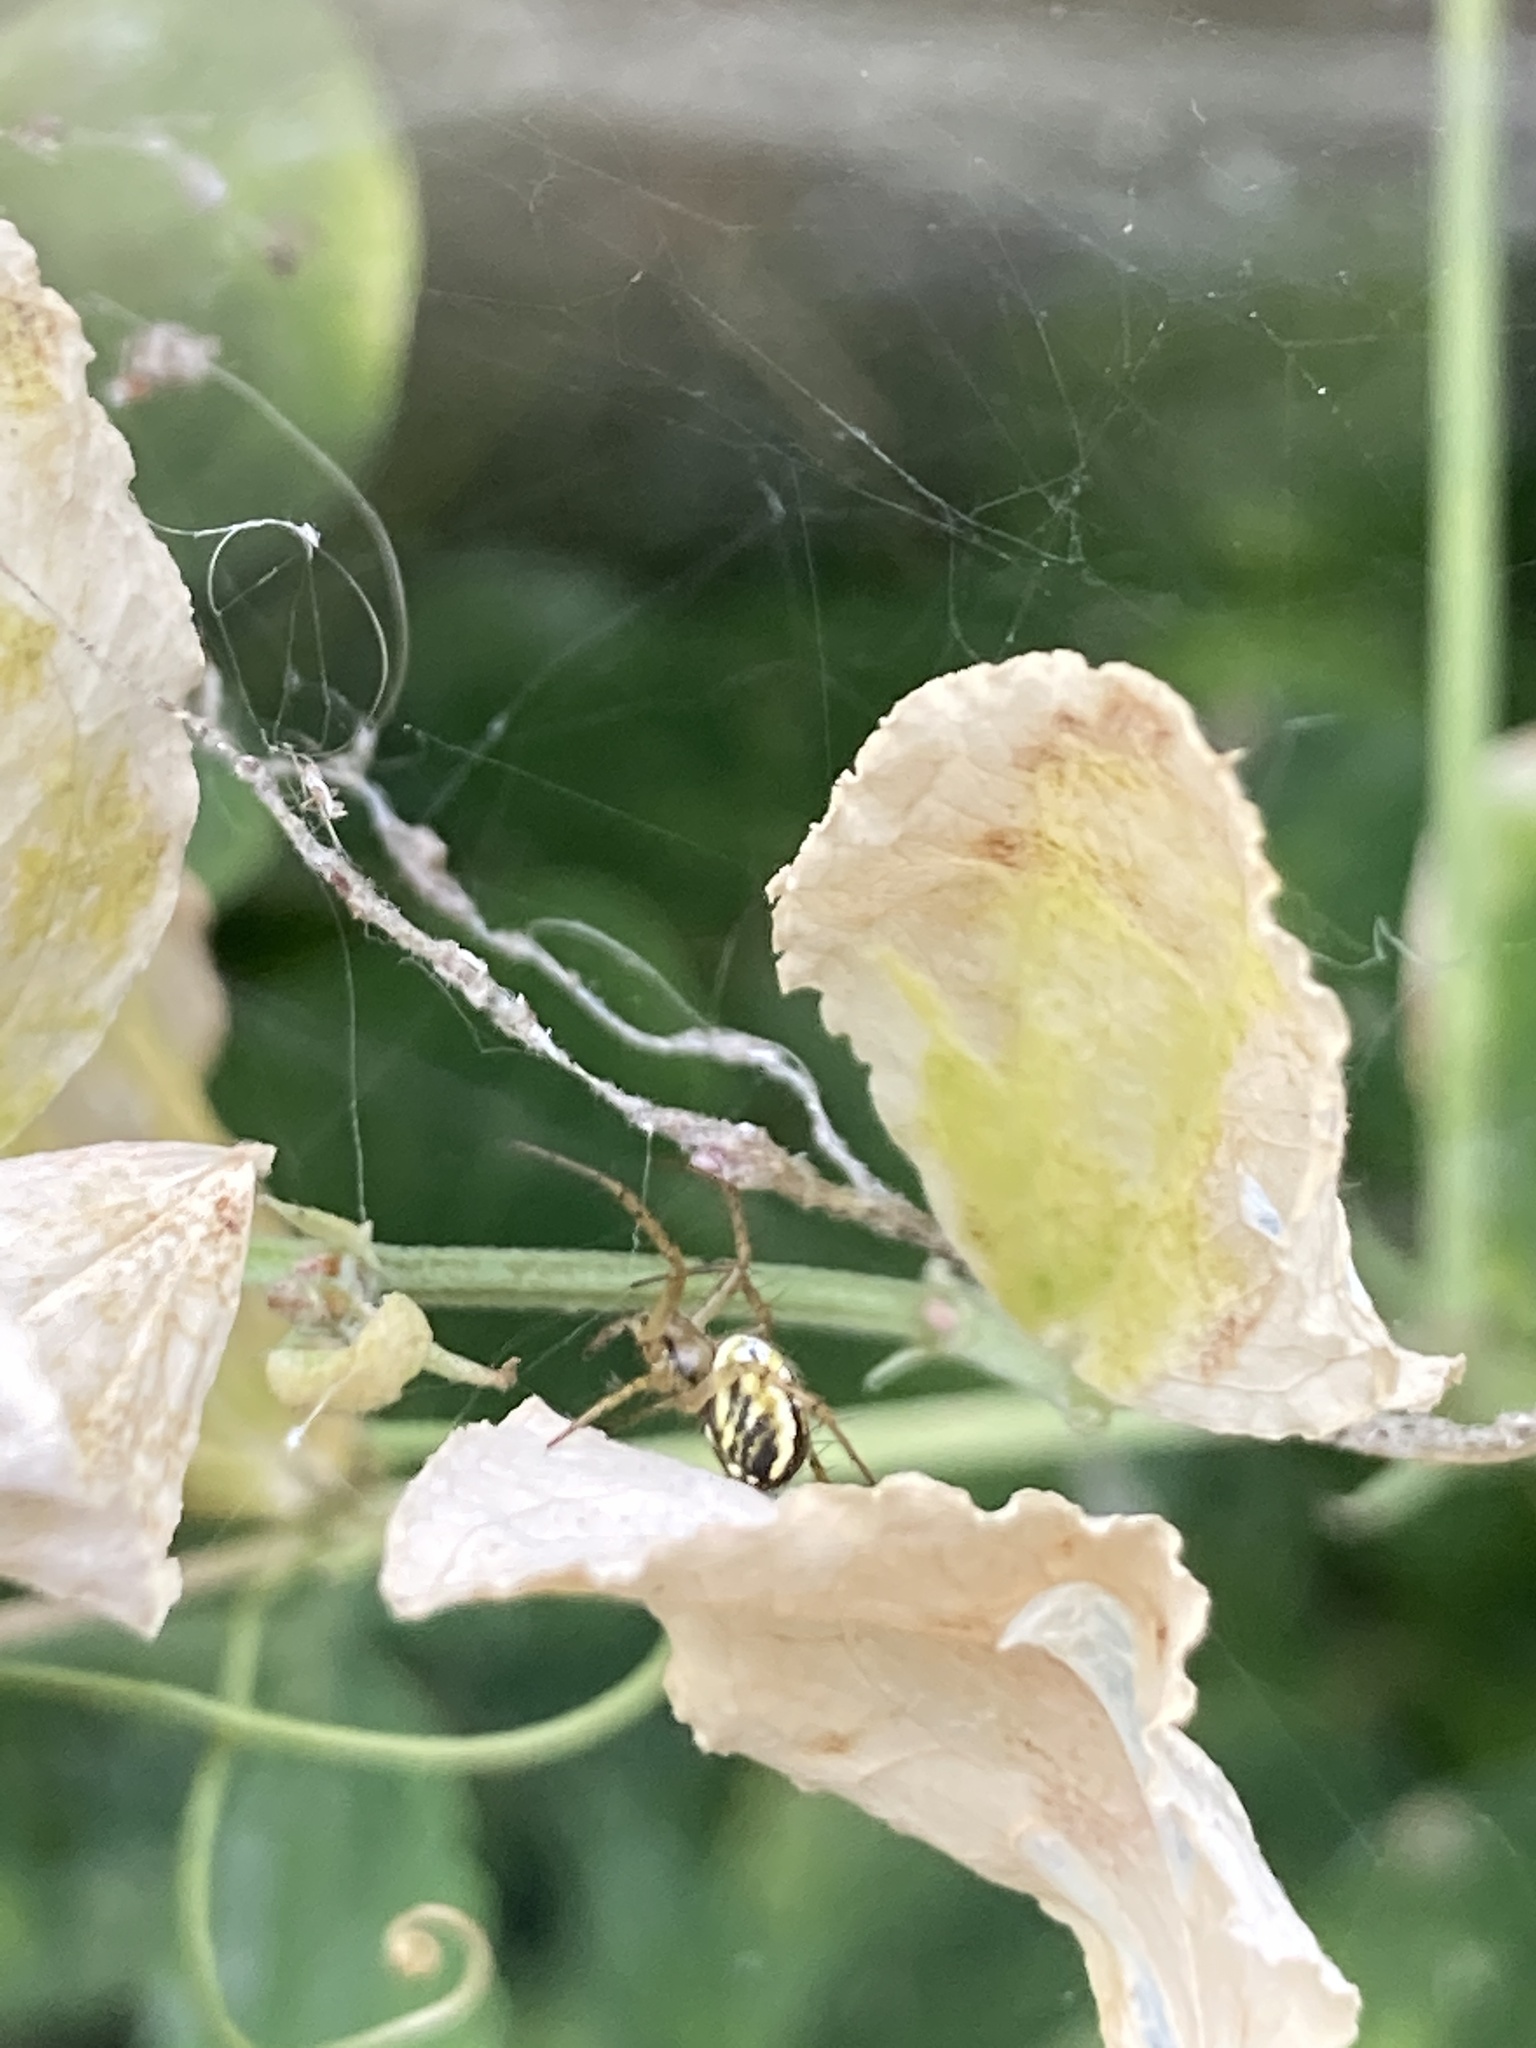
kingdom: Animalia
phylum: Arthropoda
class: Arachnida
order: Araneae
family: Araneidae
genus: Mangora
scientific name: Mangora acalypha
